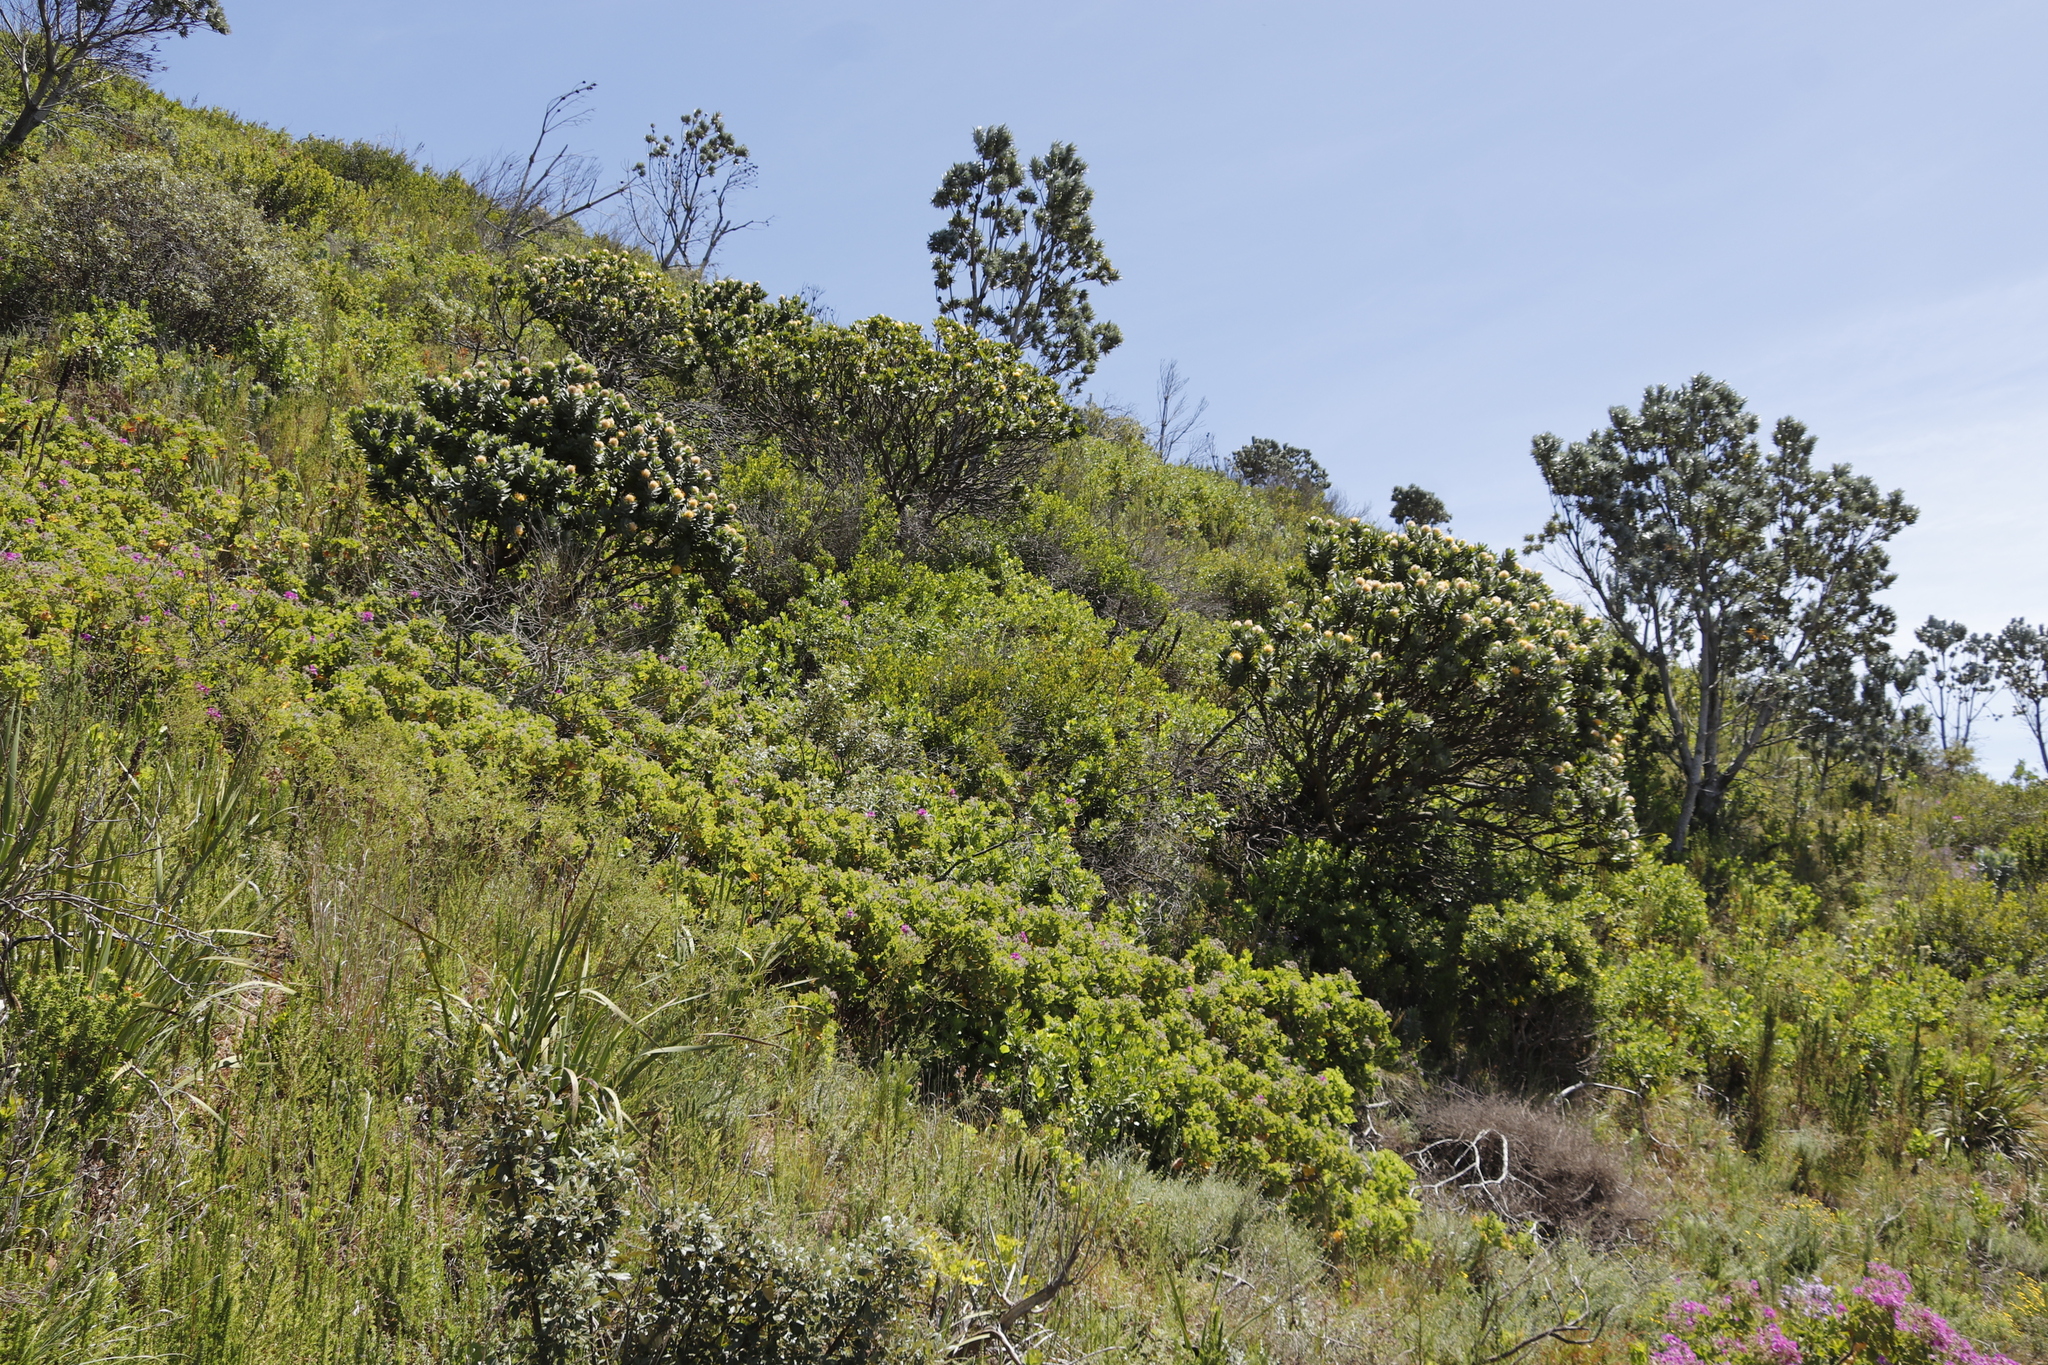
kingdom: Plantae
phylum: Tracheophyta
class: Magnoliopsida
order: Proteales
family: Proteaceae
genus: Leucospermum
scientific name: Leucospermum conocarpodendron
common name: Tree pincushion
